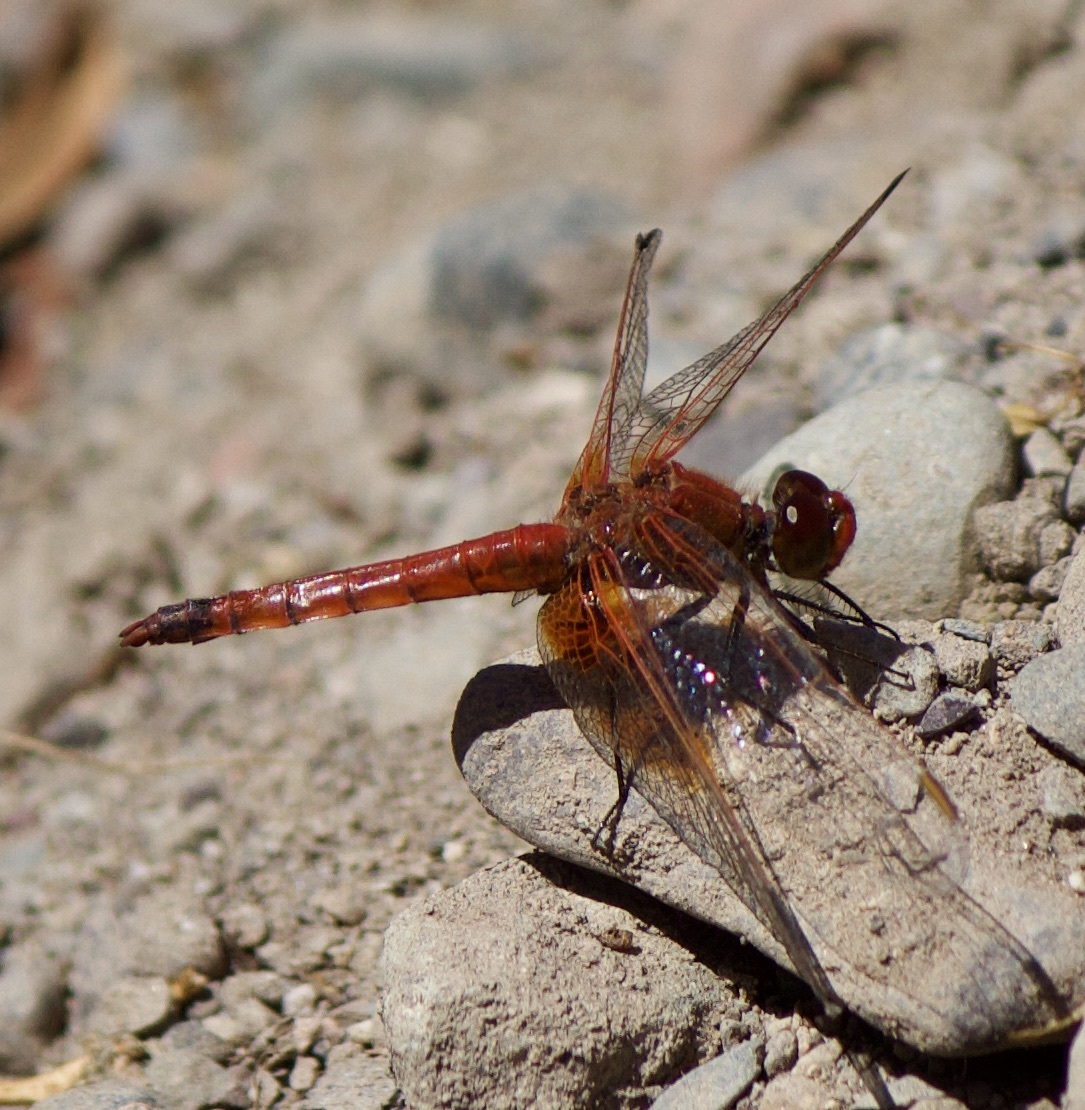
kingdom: Animalia
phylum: Arthropoda
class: Insecta
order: Odonata
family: Libellulidae
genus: Erythrodiplax
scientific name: Erythrodiplax corallina
